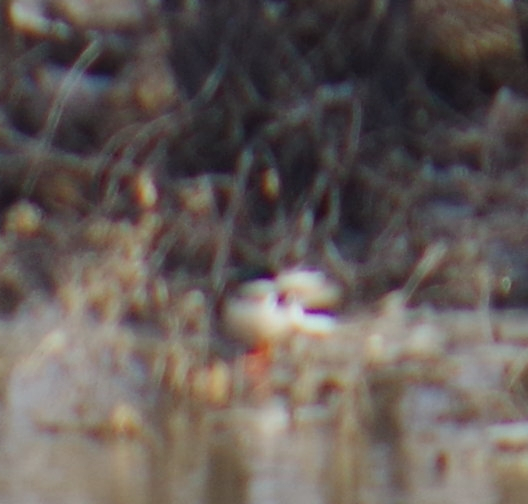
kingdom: Animalia
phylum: Chordata
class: Aves
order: Anseriformes
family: Anatidae
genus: Anas
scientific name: Anas platyrhynchos
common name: Mallard
